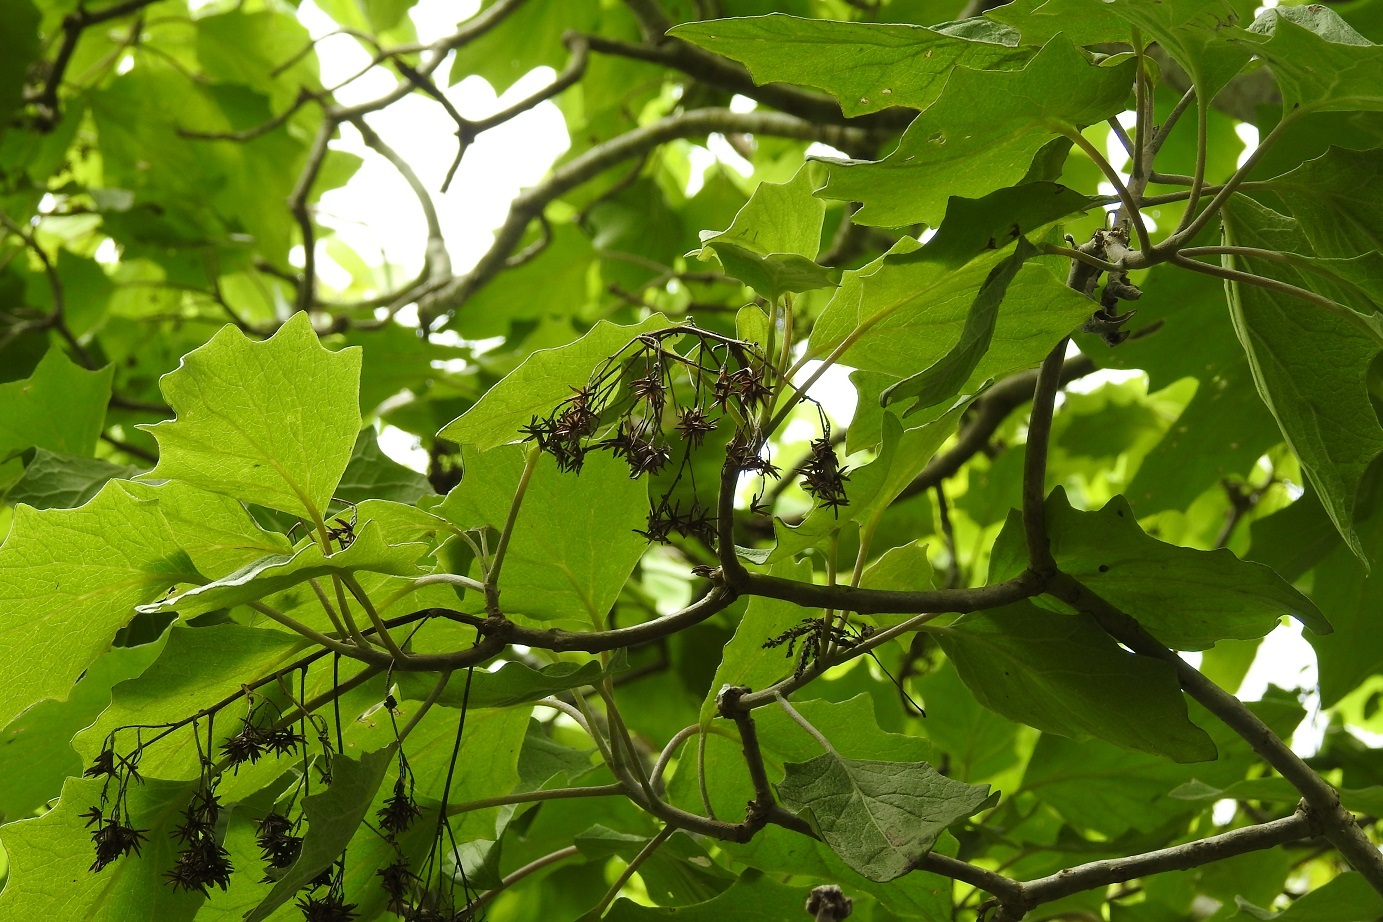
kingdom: Plantae
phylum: Tracheophyta
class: Magnoliopsida
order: Asterales
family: Asteraceae
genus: Pittocaulon
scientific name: Pittocaulon velatum
